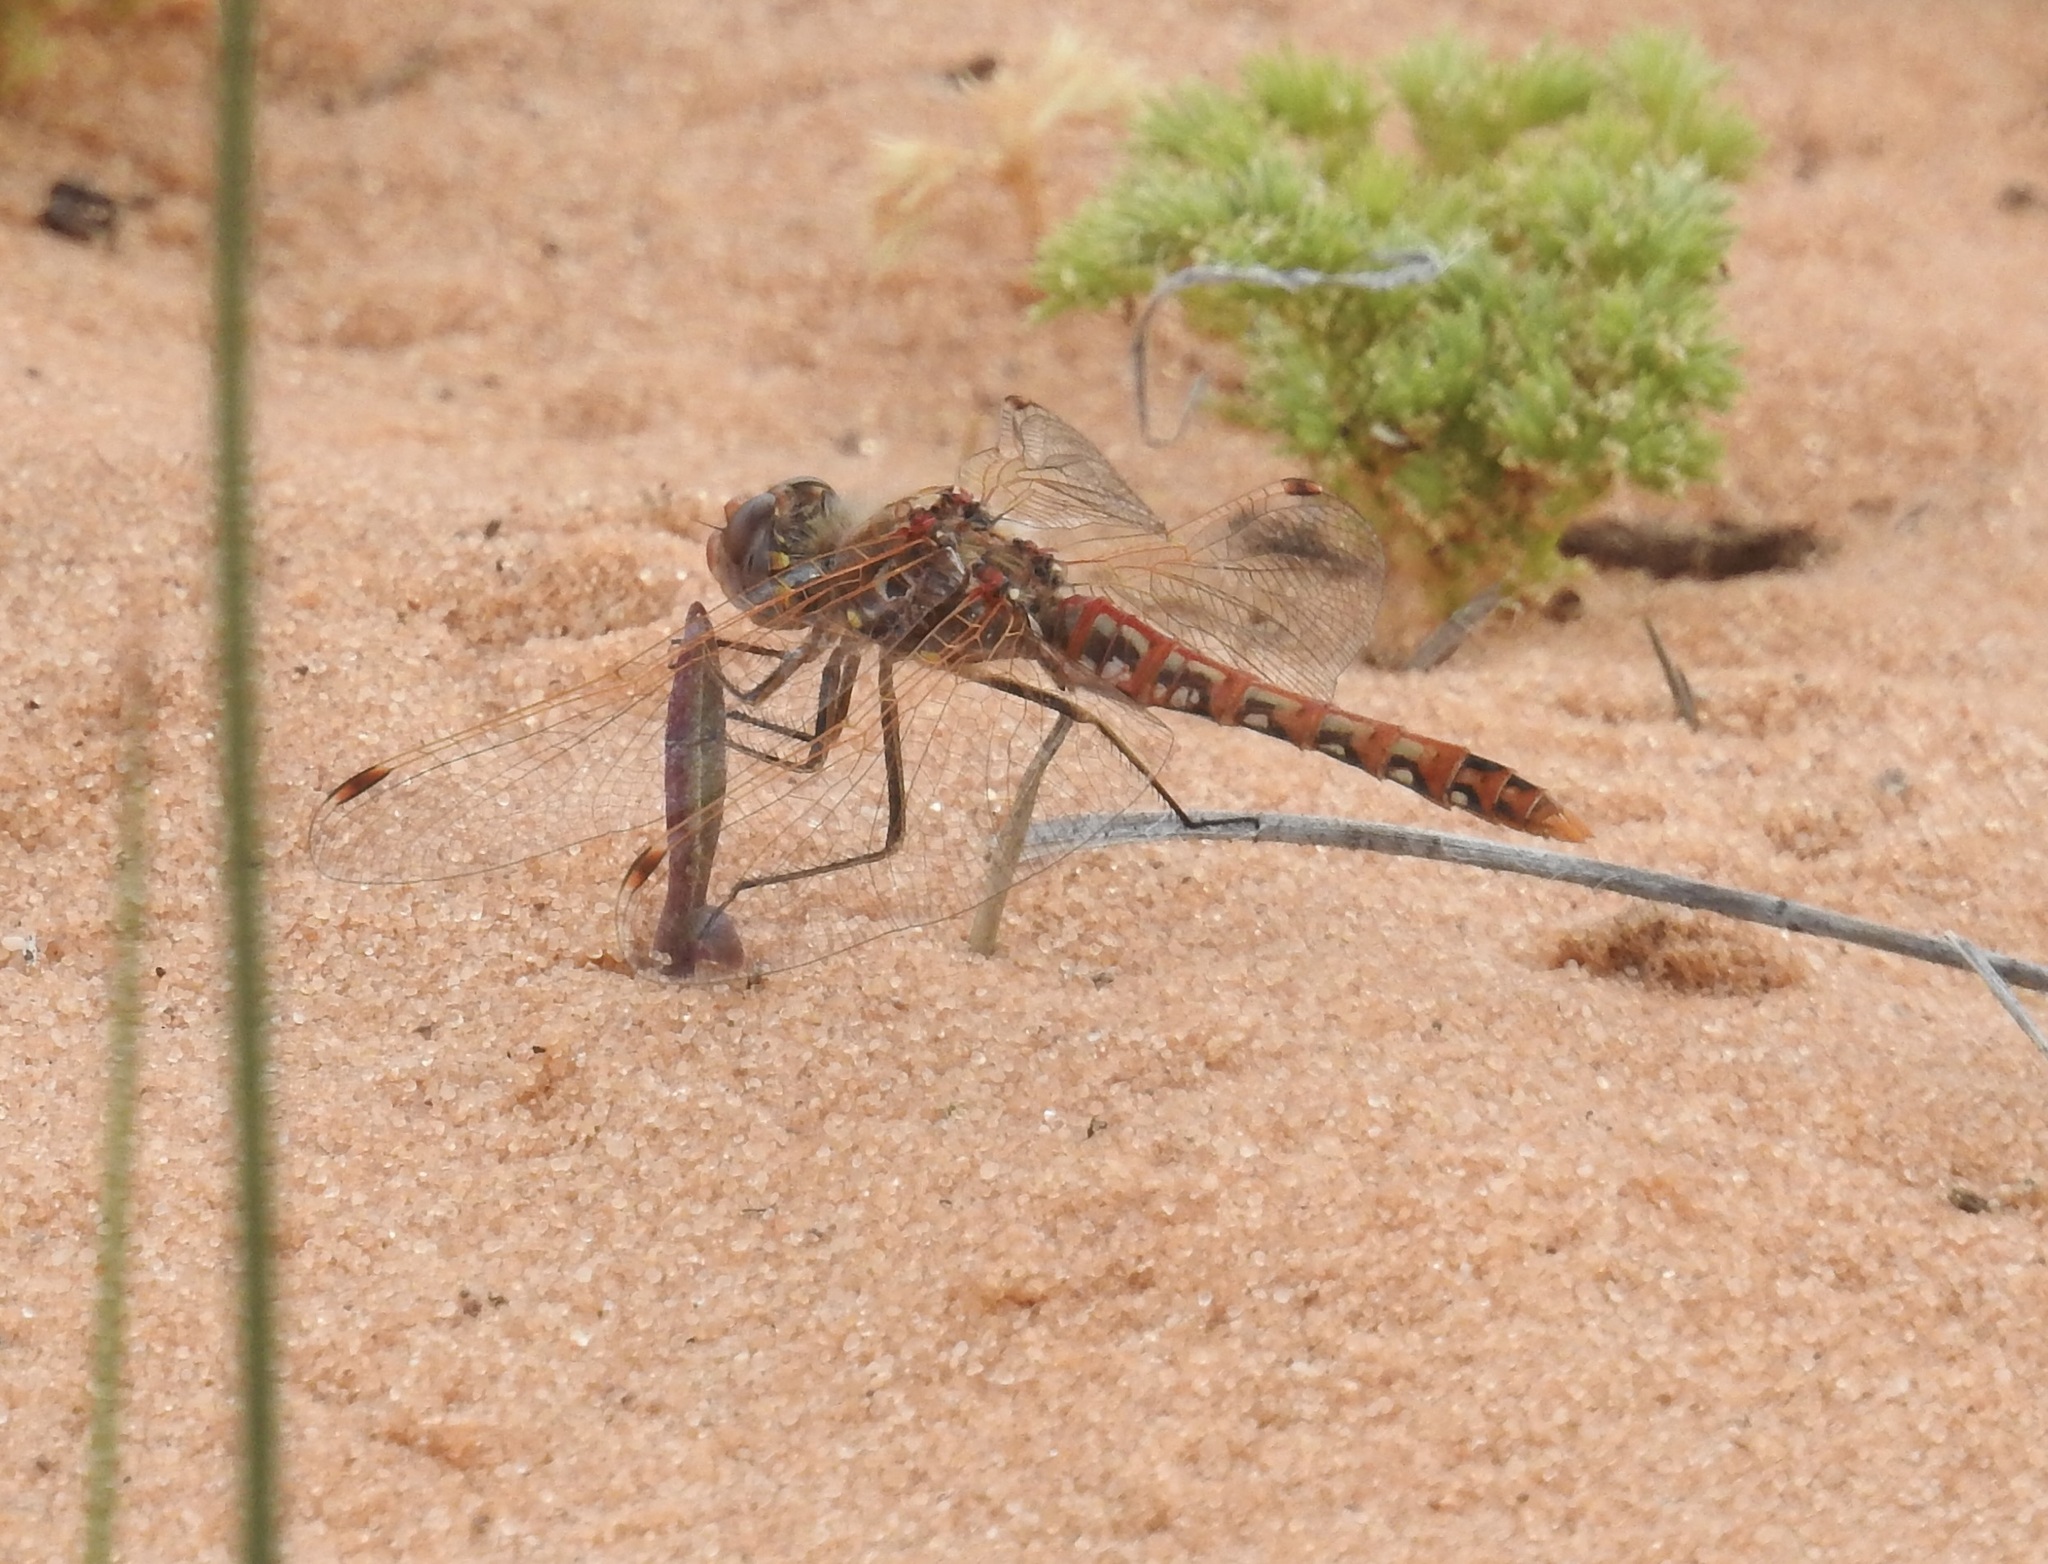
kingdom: Animalia
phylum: Arthropoda
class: Insecta
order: Odonata
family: Libellulidae
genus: Sympetrum
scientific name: Sympetrum corruptum
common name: Variegated meadowhawk
